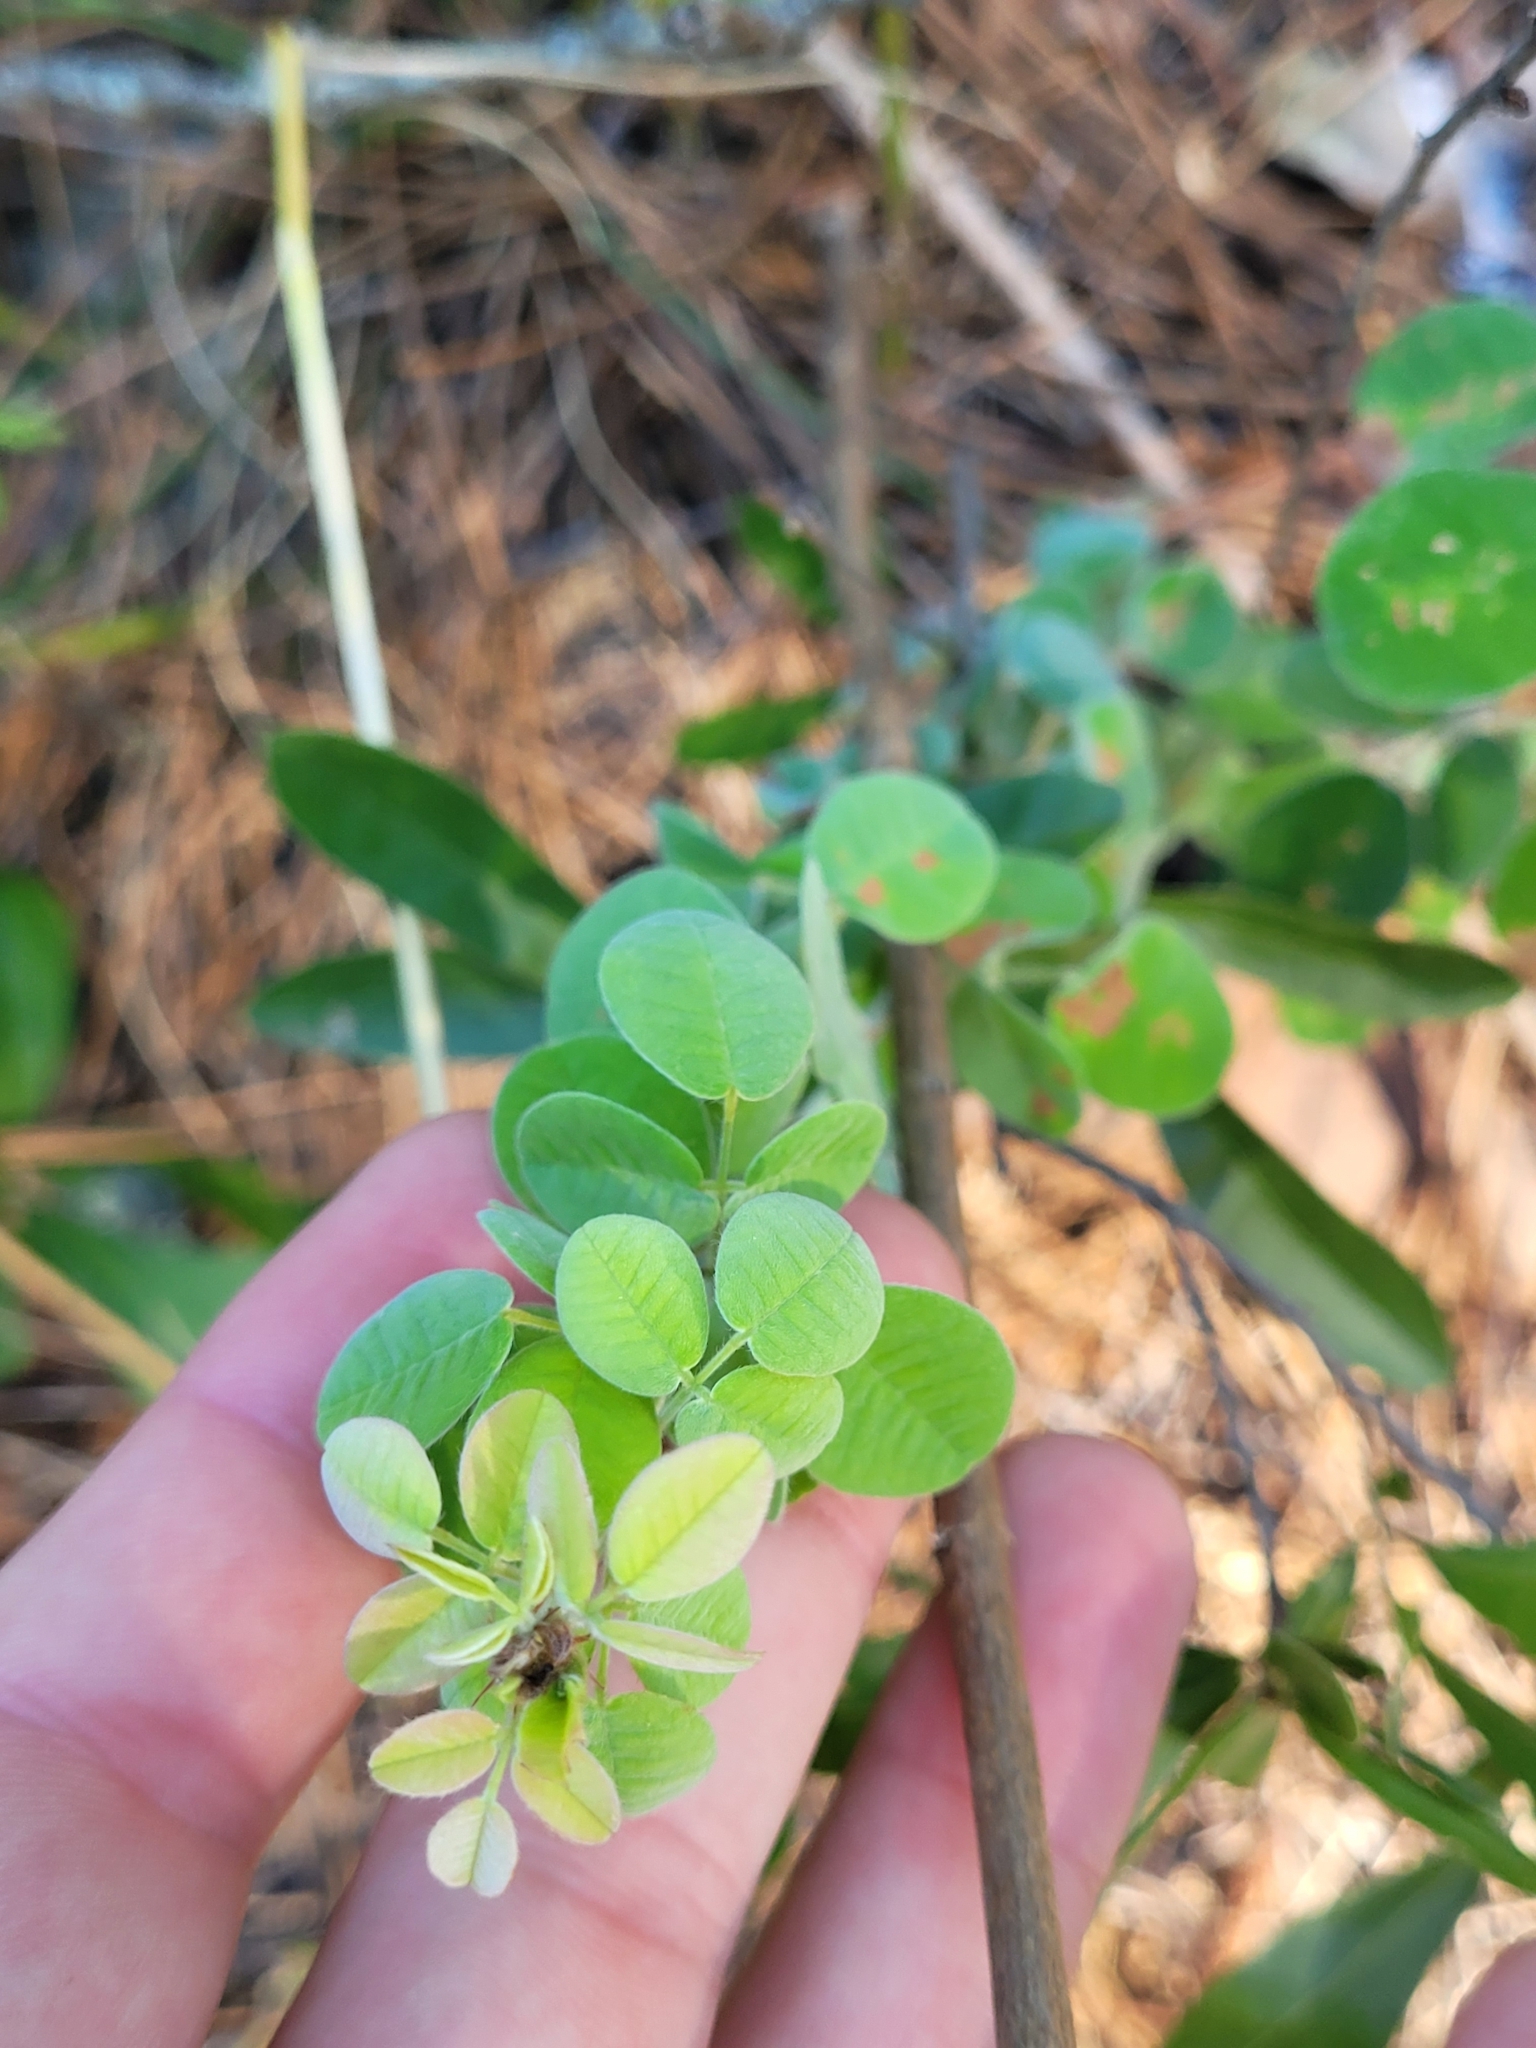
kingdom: Plantae
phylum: Tracheophyta
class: Magnoliopsida
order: Fabales
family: Fabaceae
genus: Lespedeza
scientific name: Lespedeza hirta
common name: Hairy lespedeza
